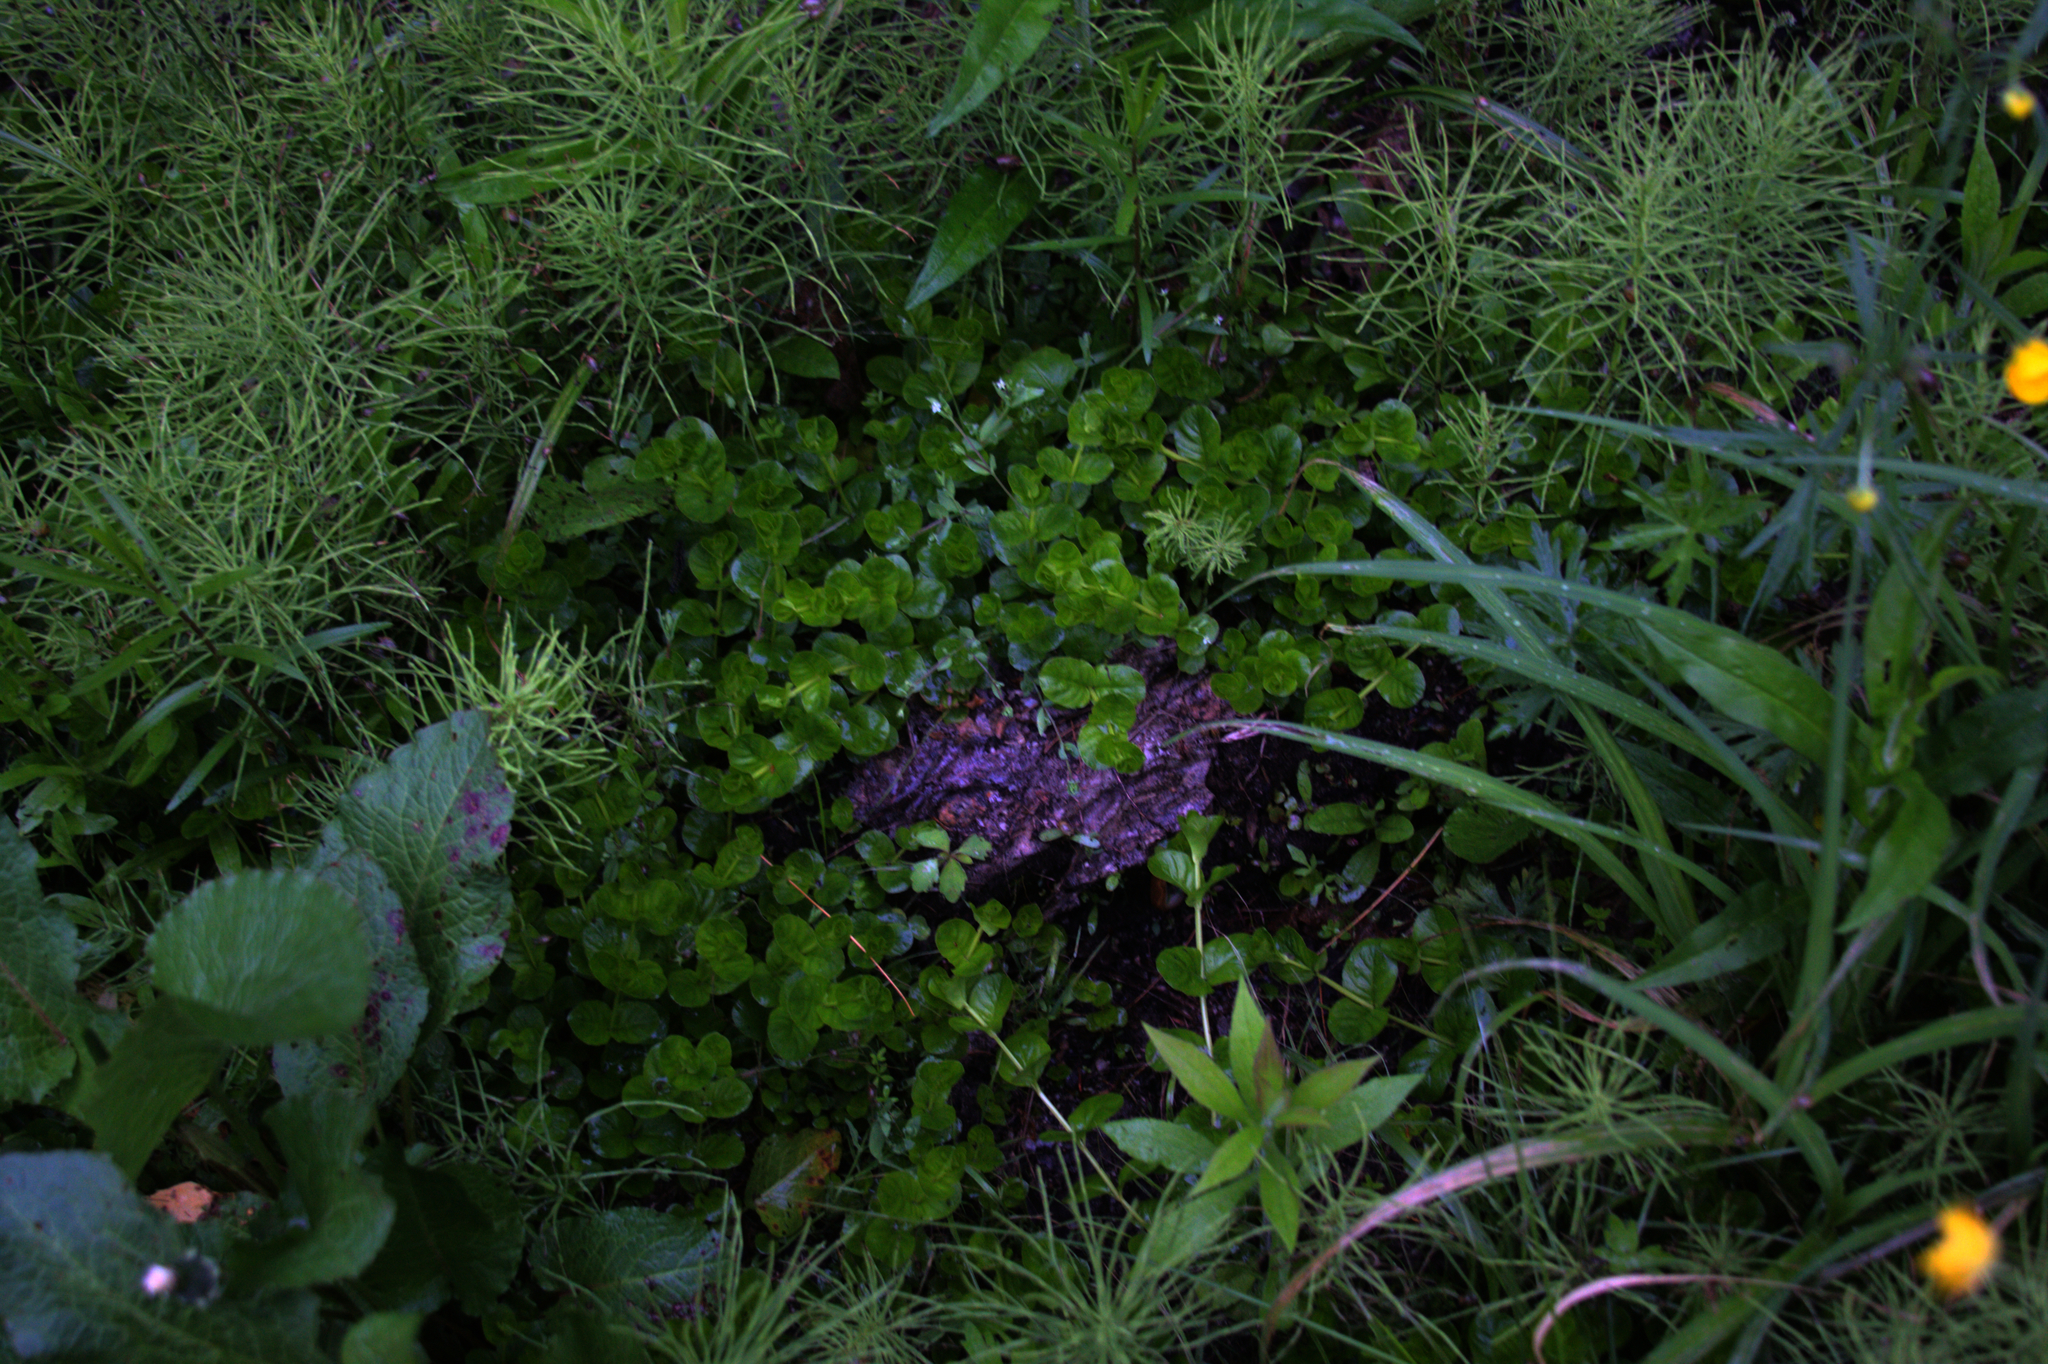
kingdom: Plantae
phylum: Tracheophyta
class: Magnoliopsida
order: Ericales
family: Primulaceae
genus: Lysimachia
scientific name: Lysimachia nummularia
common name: Moneywort
